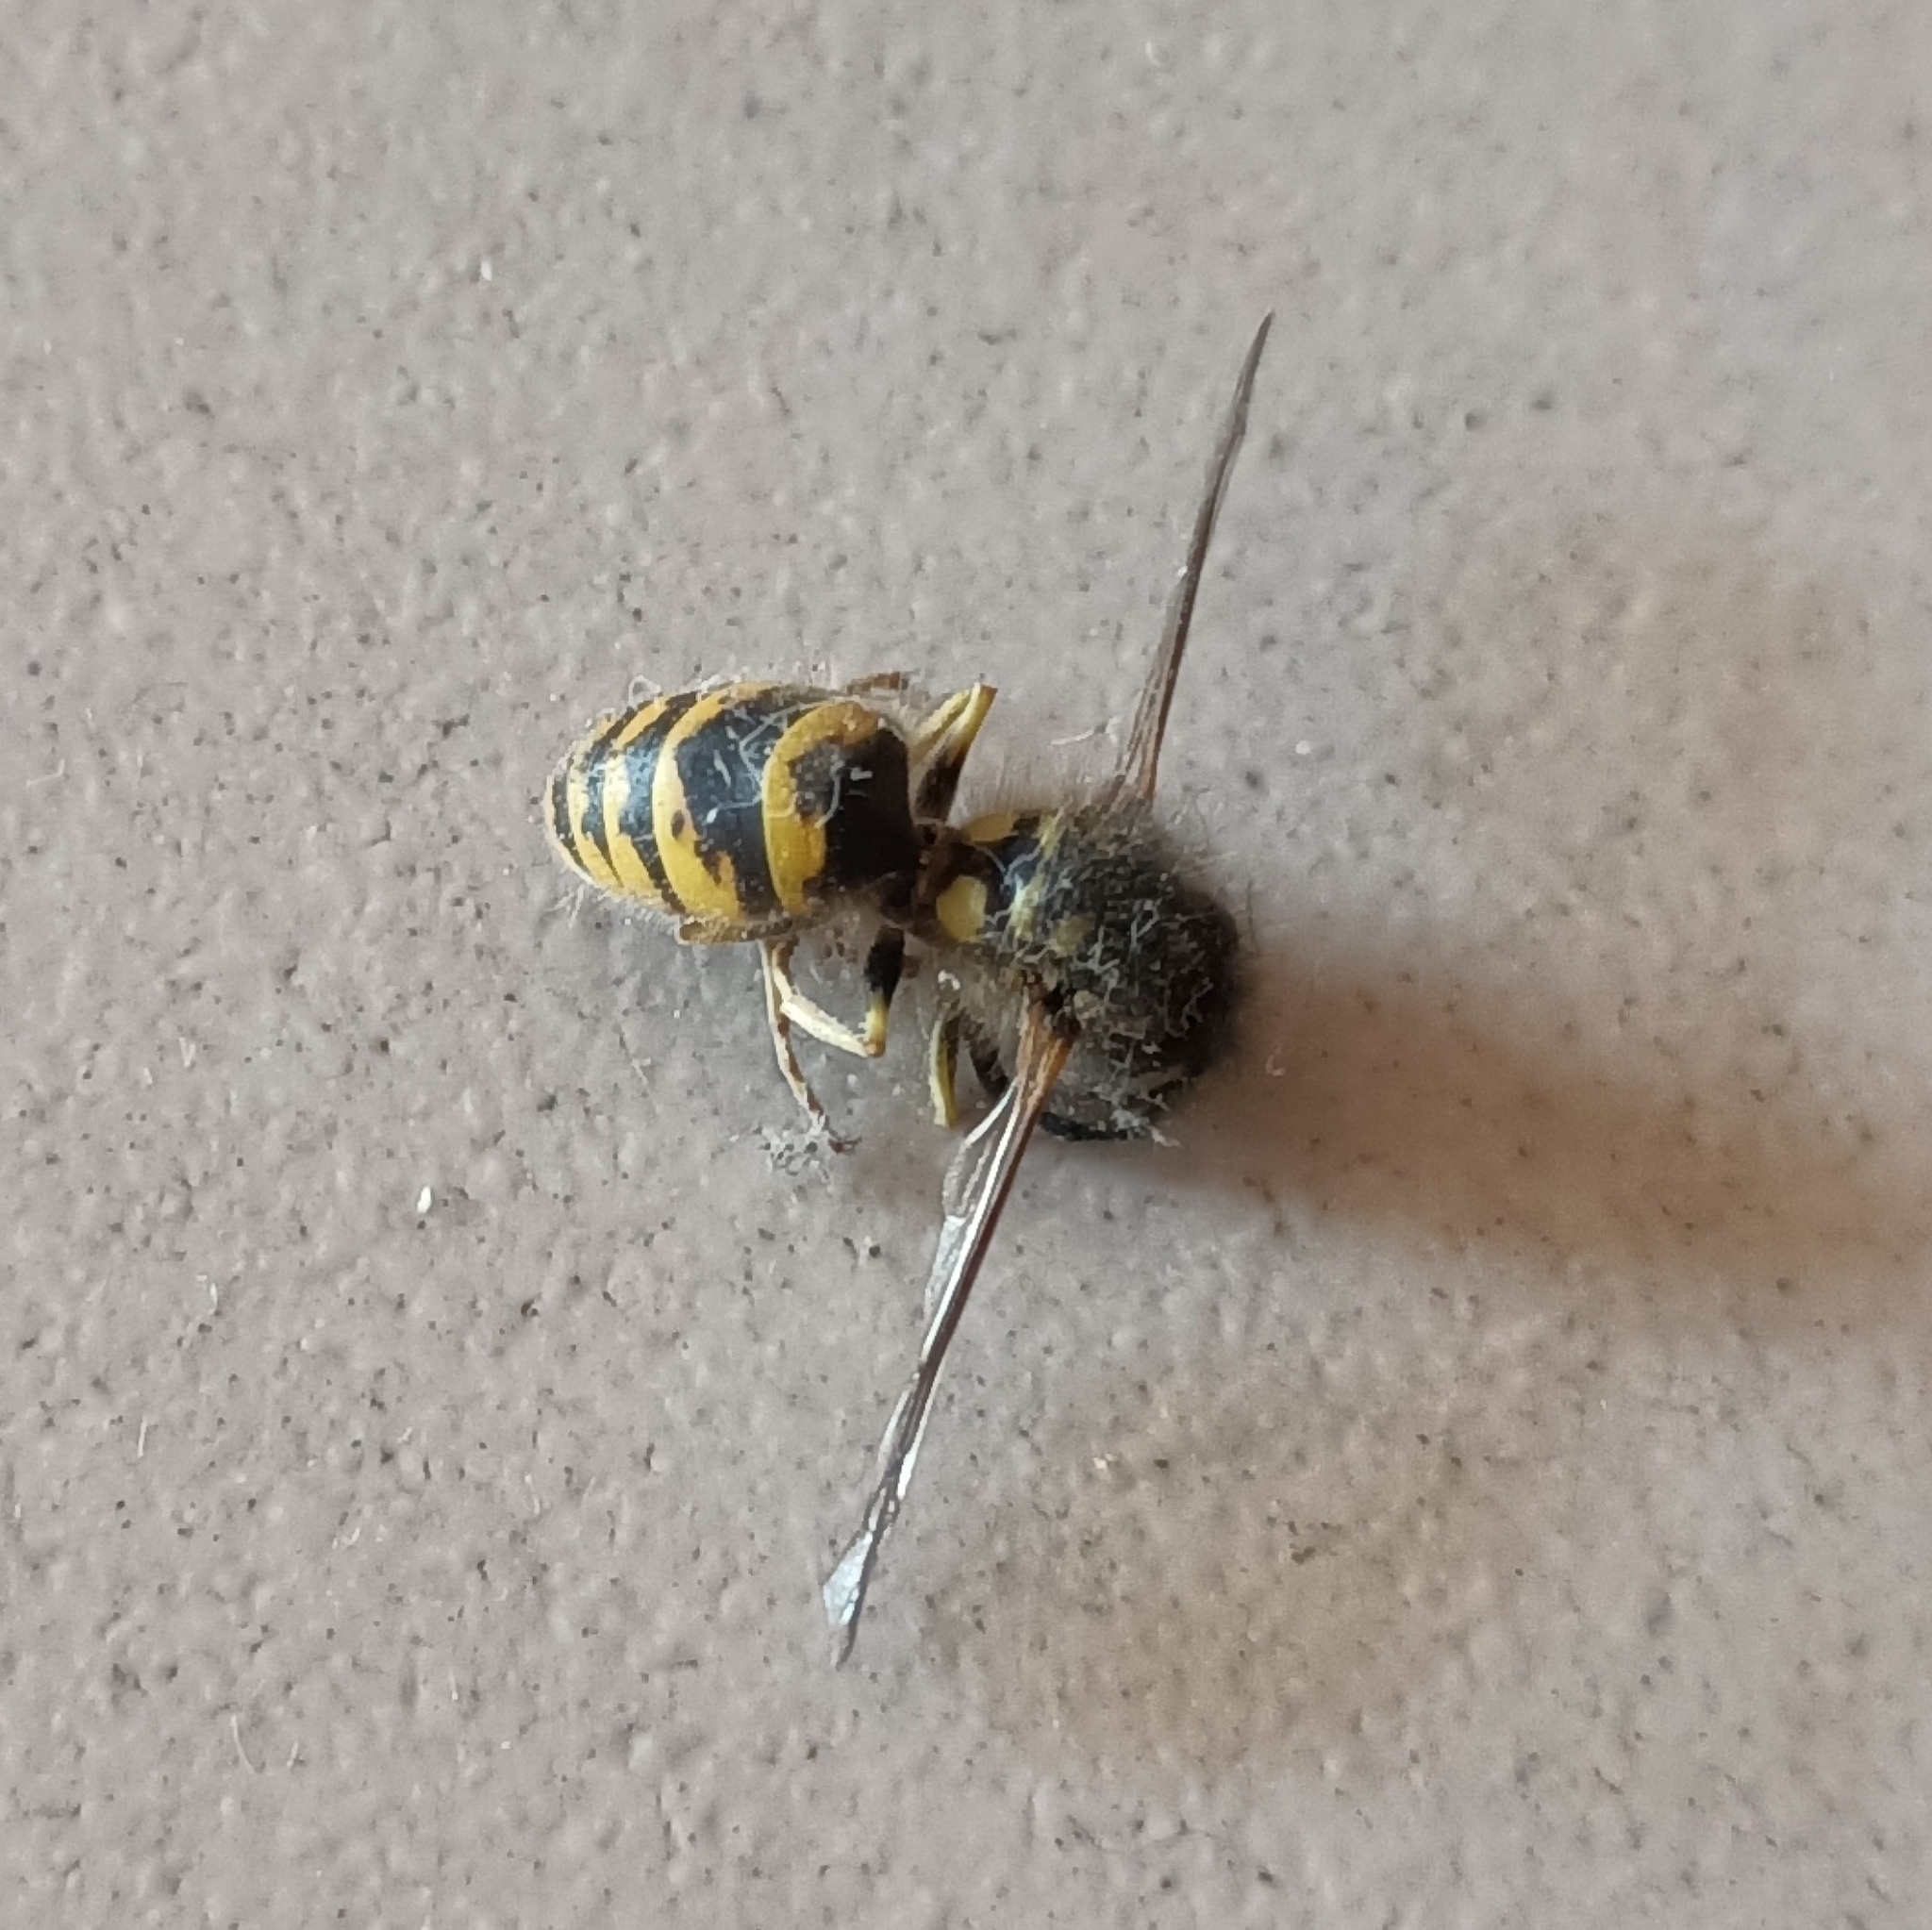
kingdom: Animalia
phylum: Arthropoda
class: Insecta
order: Hymenoptera
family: Vespidae
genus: Vespula
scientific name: Vespula vulgaris
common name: Common wasp
